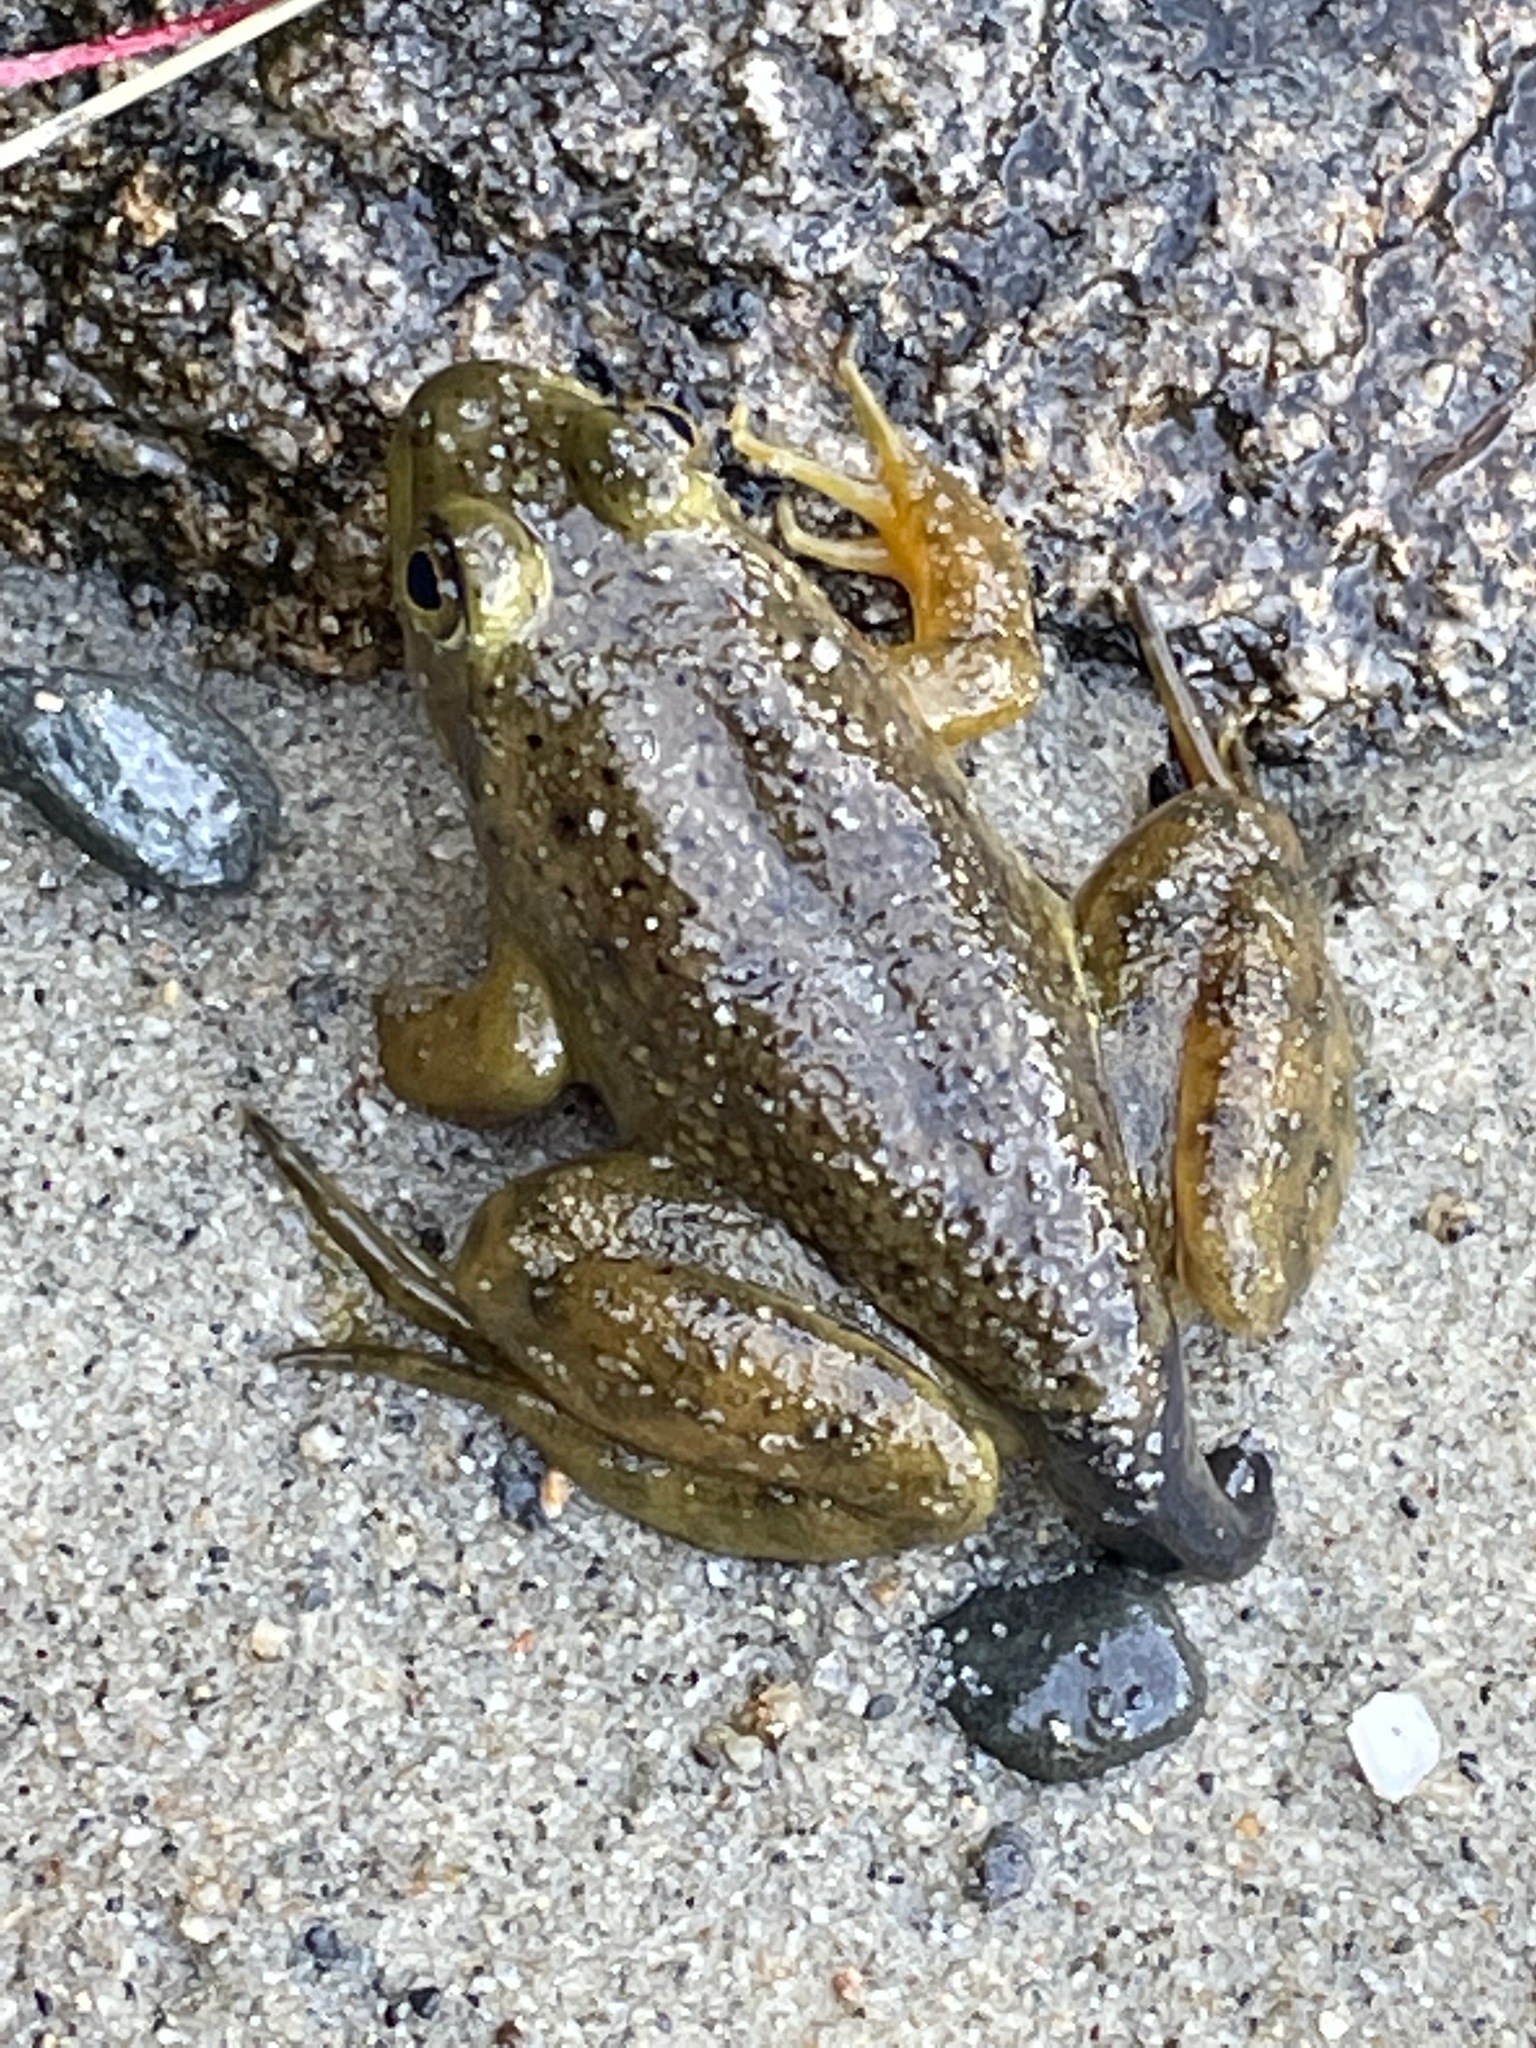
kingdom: Animalia
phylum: Chordata
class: Amphibia
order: Anura
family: Ranidae
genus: Lithobates
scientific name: Lithobates catesbeianus
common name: American bullfrog
